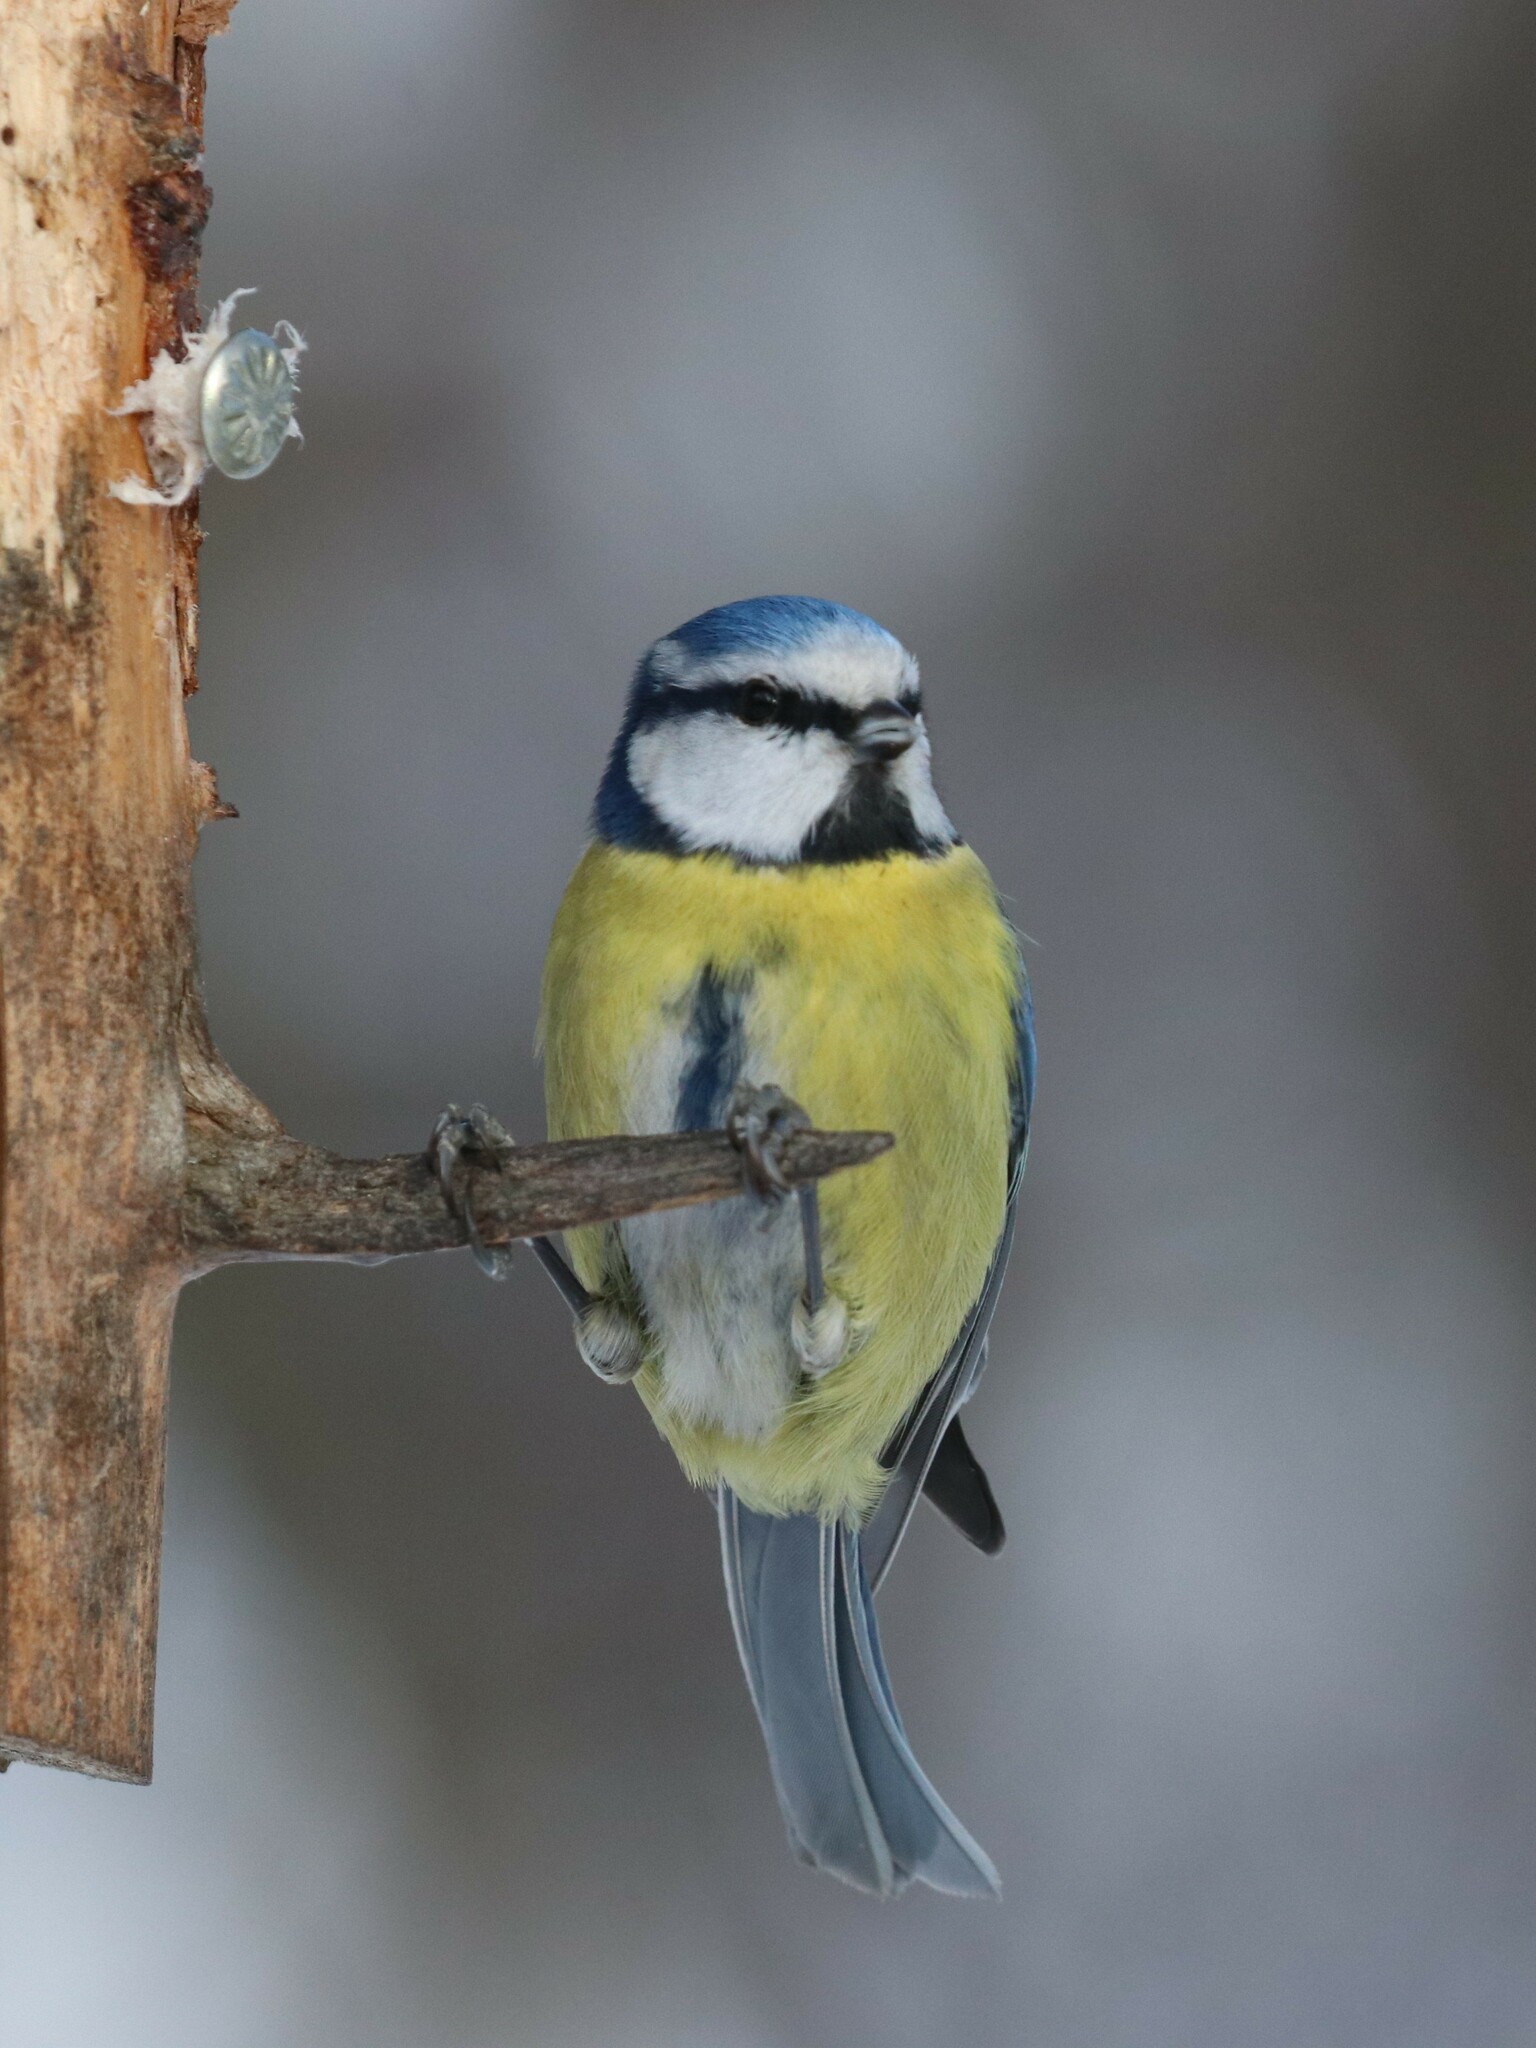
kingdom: Animalia
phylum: Chordata
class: Aves
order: Passeriformes
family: Paridae
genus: Cyanistes
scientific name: Cyanistes caeruleus
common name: Eurasian blue tit
